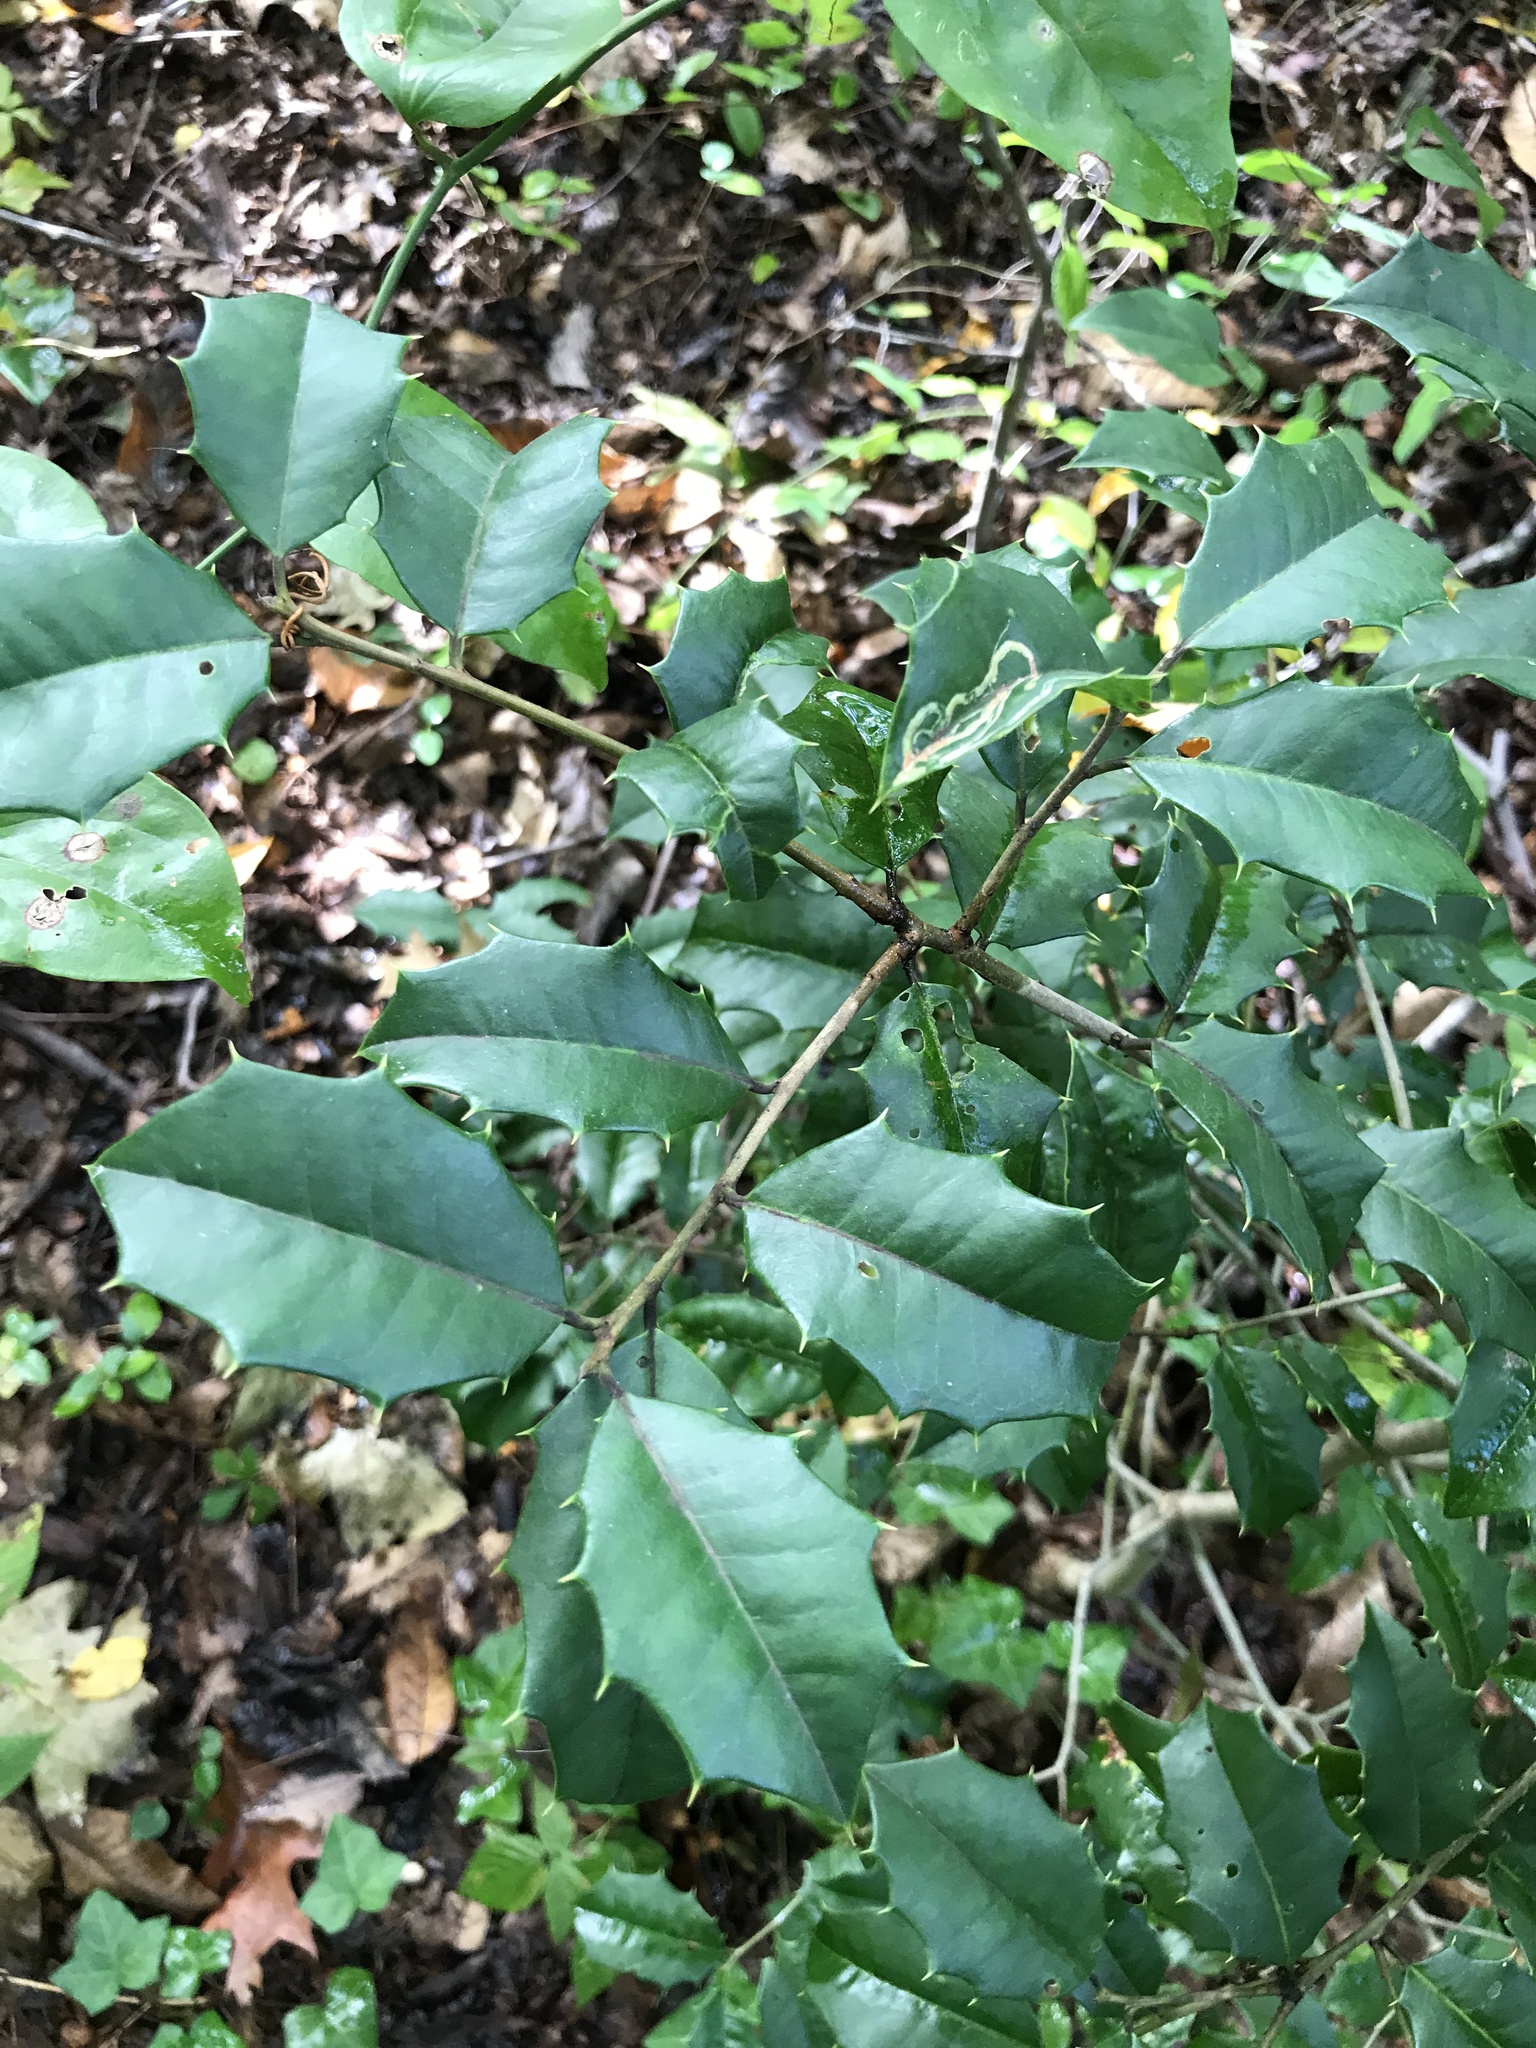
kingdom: Plantae
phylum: Tracheophyta
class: Magnoliopsida
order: Aquifoliales
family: Aquifoliaceae
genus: Ilex
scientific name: Ilex opaca
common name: American holly
